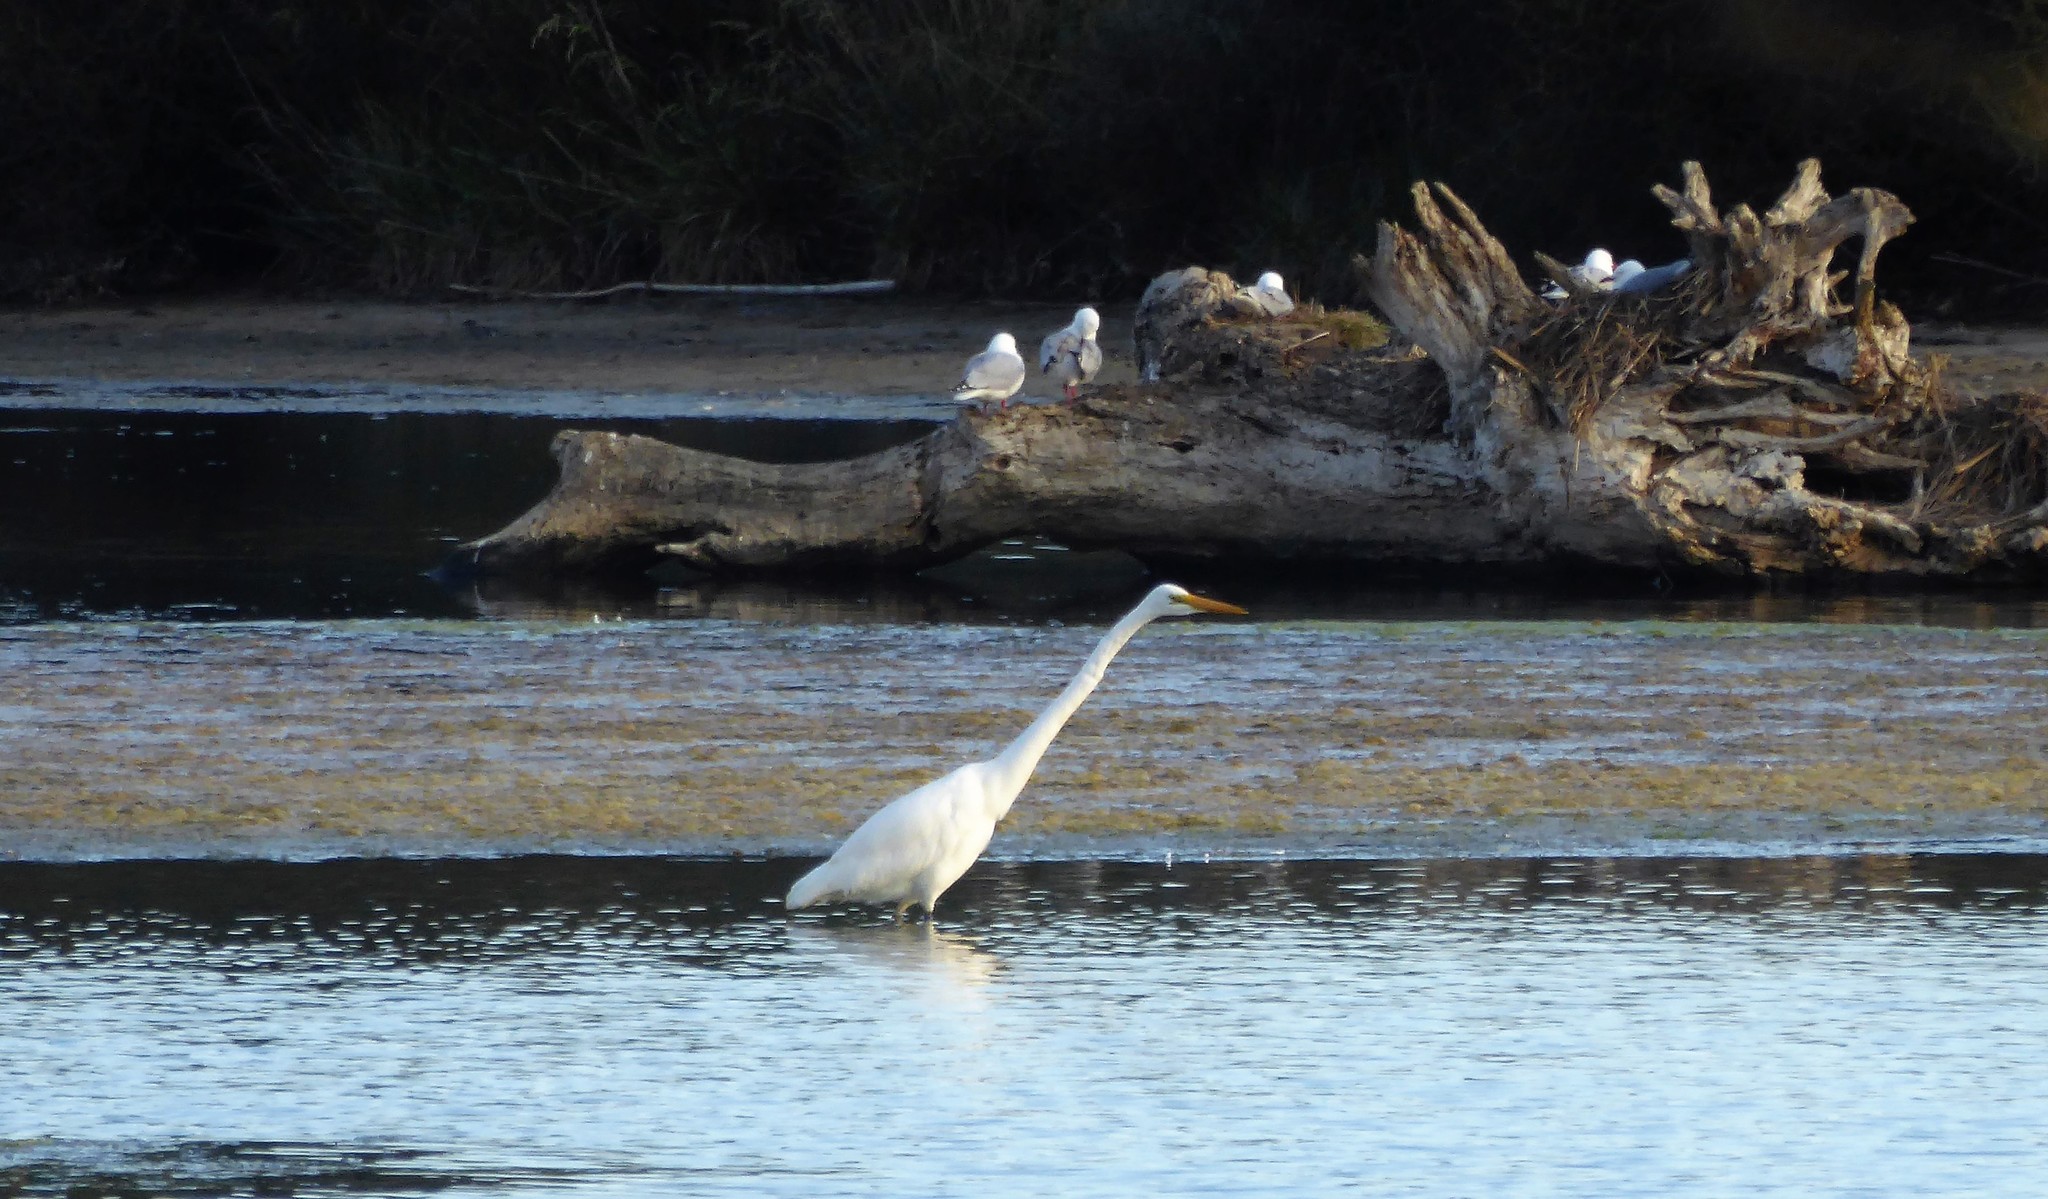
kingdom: Animalia
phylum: Chordata
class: Aves
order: Pelecaniformes
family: Ardeidae
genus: Ardea
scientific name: Ardea modesta
